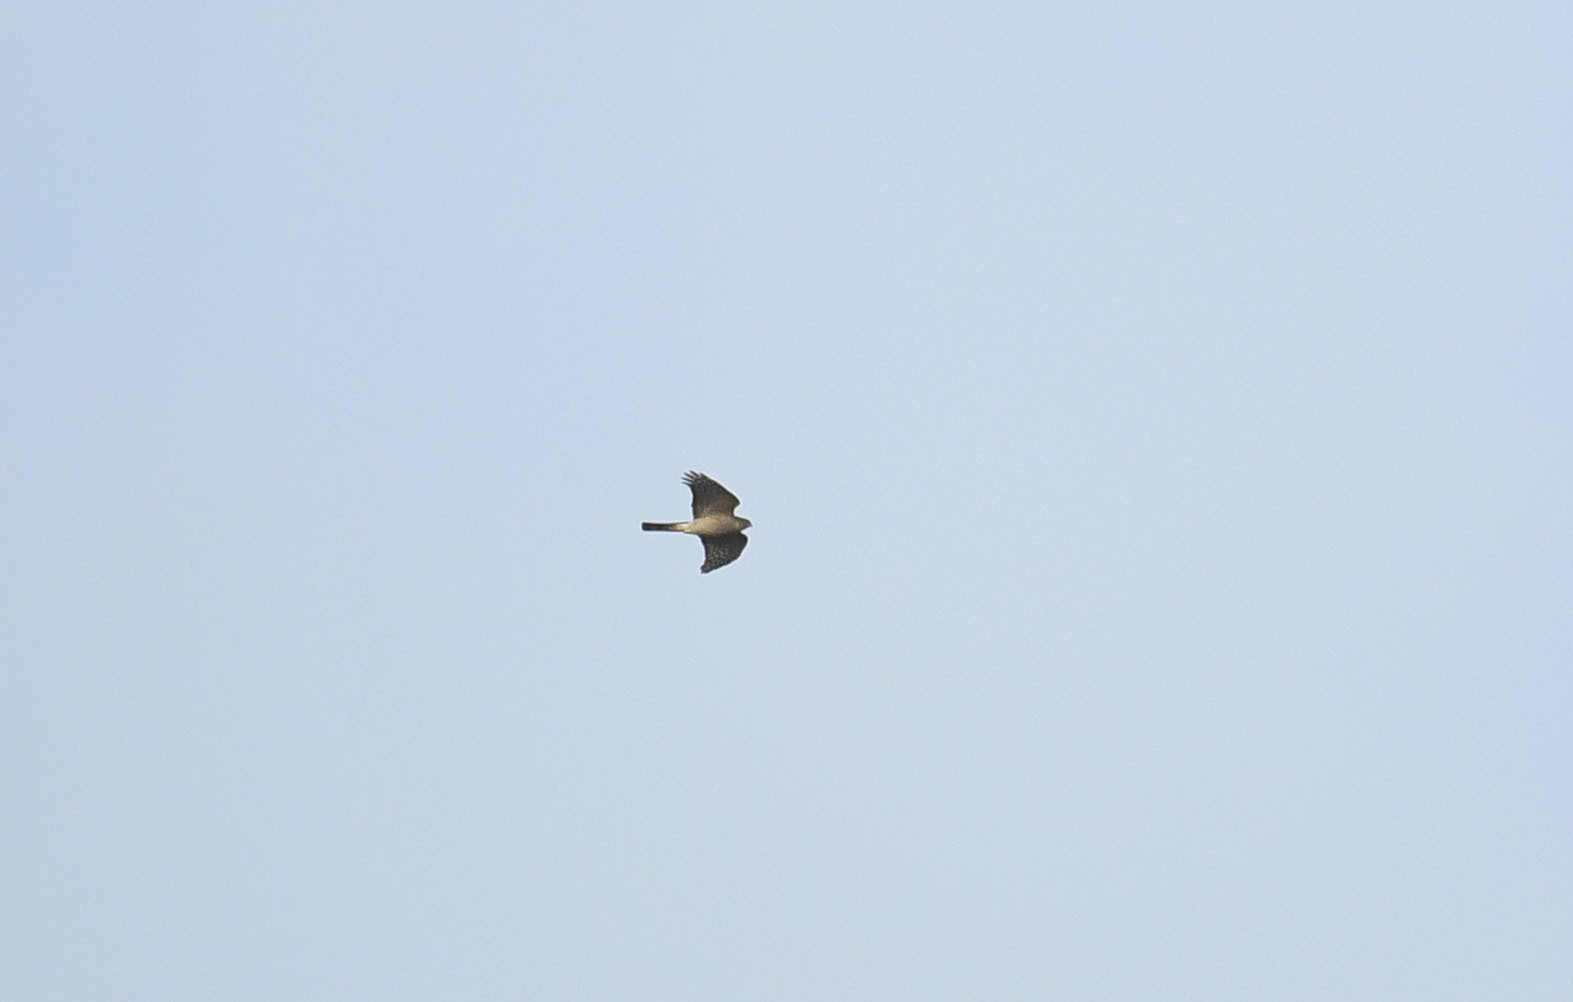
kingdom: Animalia
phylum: Chordata
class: Aves
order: Accipitriformes
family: Accipitridae
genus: Accipiter
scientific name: Accipiter nisus
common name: Eurasian sparrowhawk
